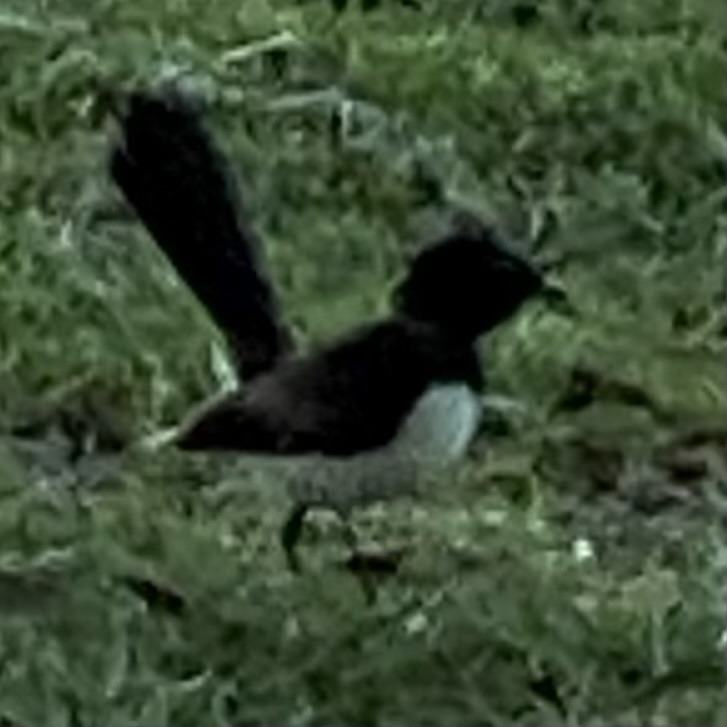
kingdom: Animalia
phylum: Chordata
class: Aves
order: Passeriformes
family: Rhipiduridae
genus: Rhipidura
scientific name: Rhipidura leucophrys
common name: Willie wagtail
